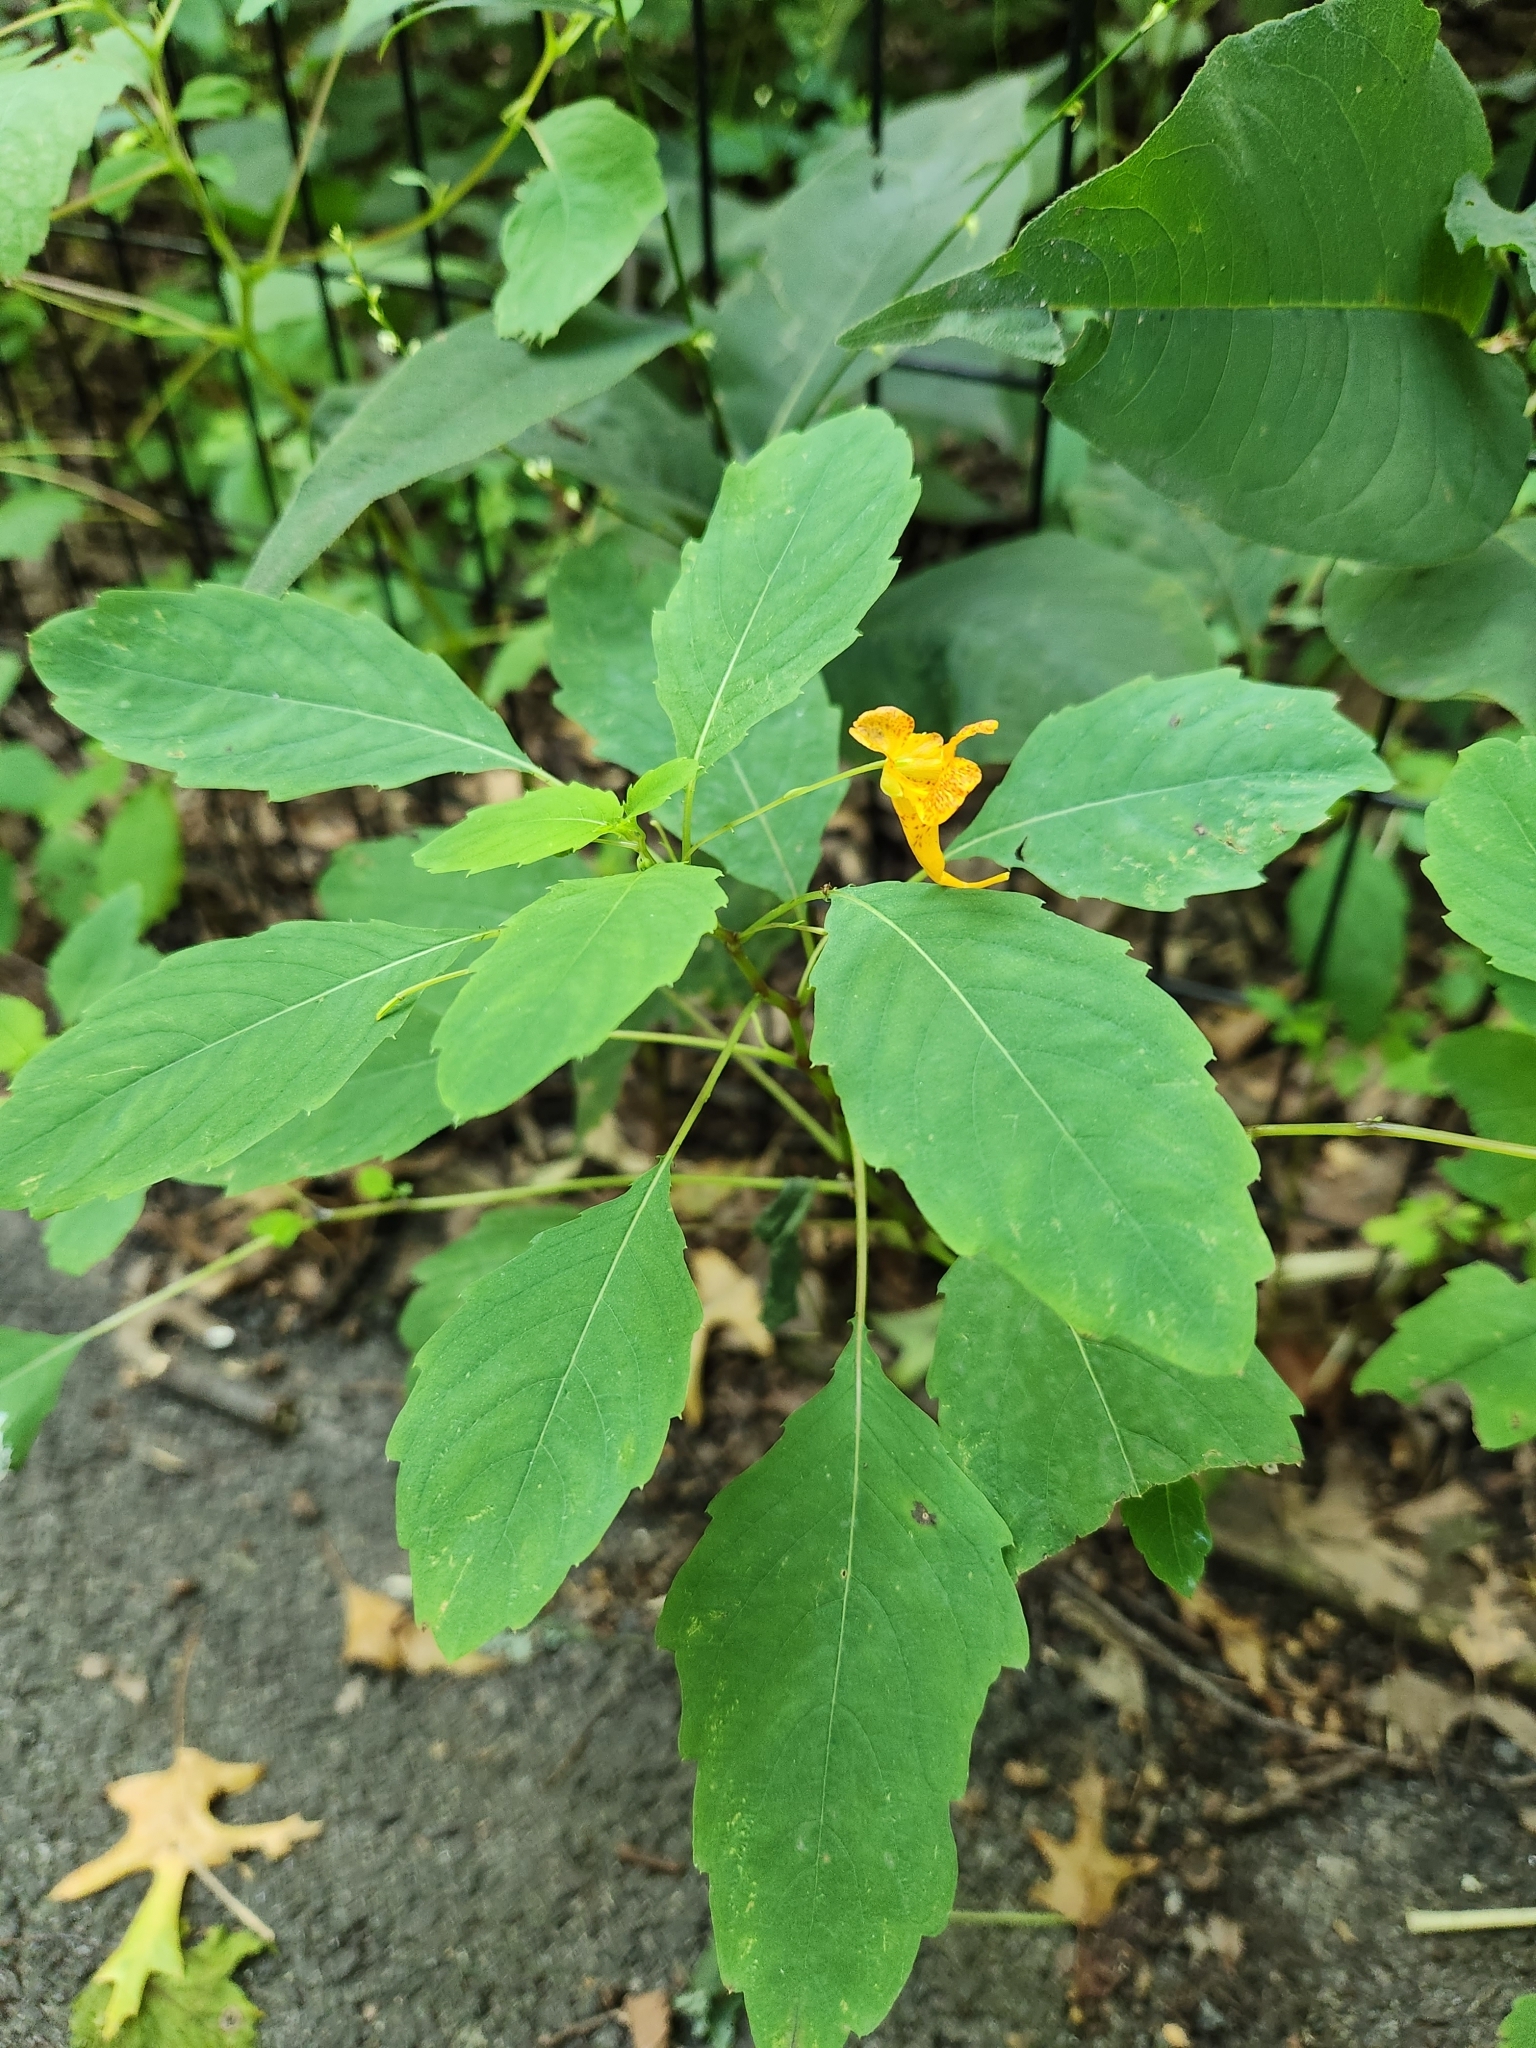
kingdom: Plantae
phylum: Tracheophyta
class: Magnoliopsida
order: Ericales
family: Balsaminaceae
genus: Impatiens
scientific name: Impatiens capensis
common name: Orange balsam
